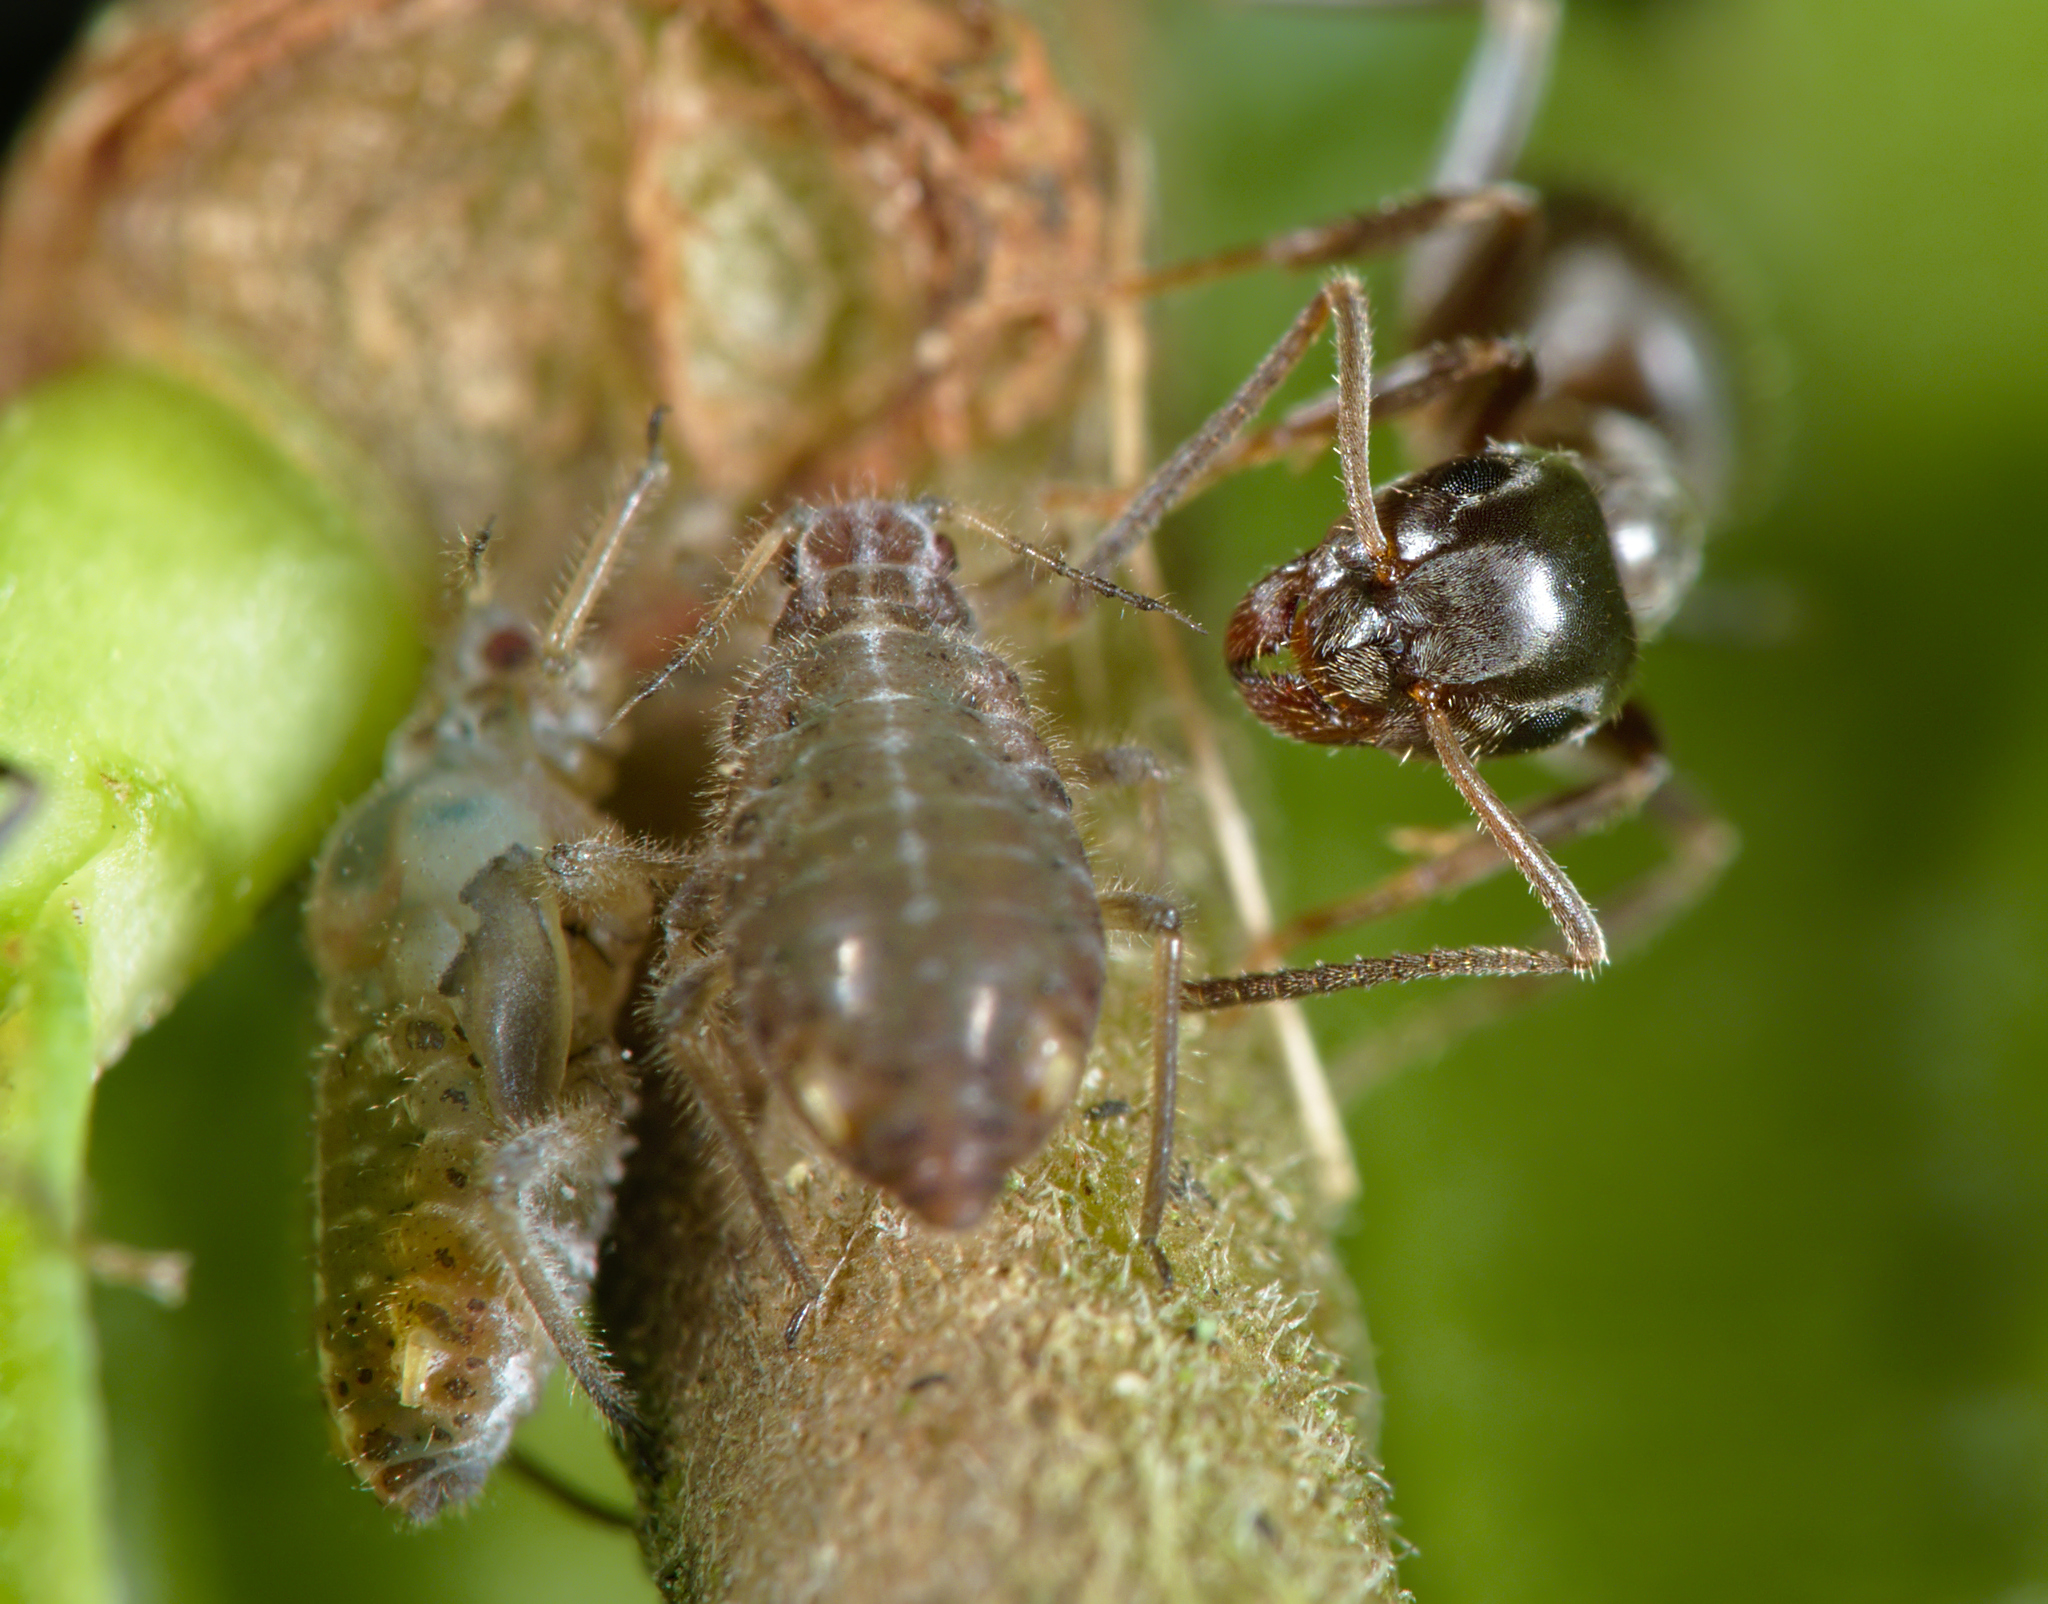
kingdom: Animalia
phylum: Arthropoda
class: Insecta
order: Hymenoptera
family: Formicidae
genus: Lasius
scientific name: Lasius niger
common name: Small black ant
